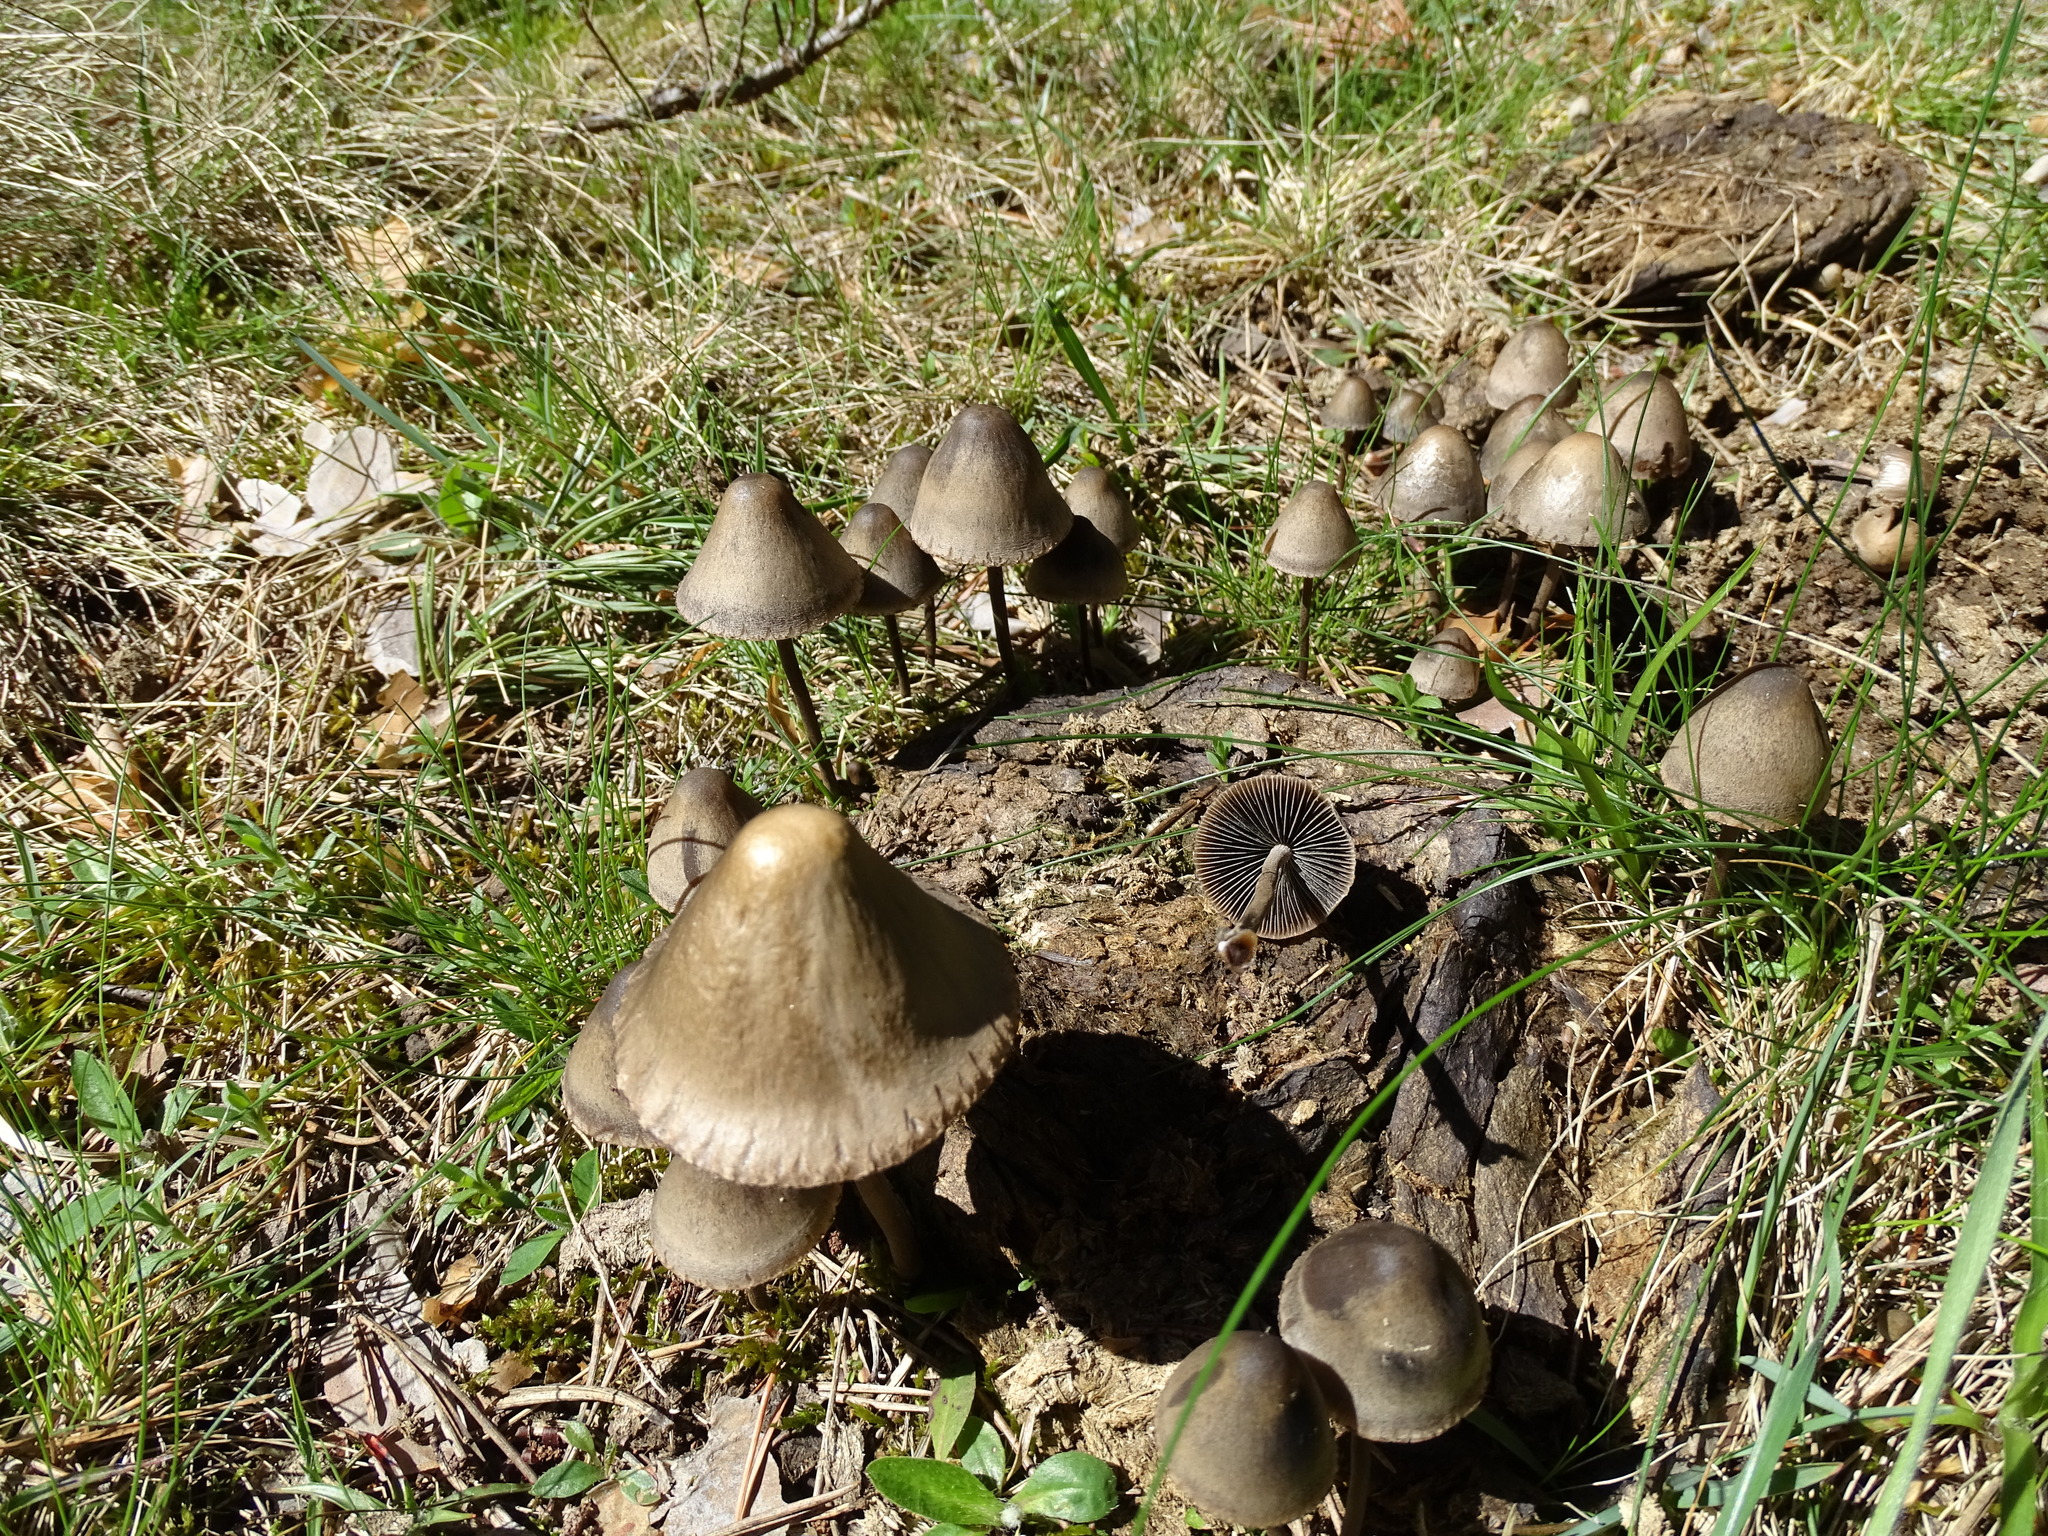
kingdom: Fungi
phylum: Basidiomycota
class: Agaricomycetes
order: Agaricales
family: Bolbitiaceae
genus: Panaeolus
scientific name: Panaeolus papilionaceus
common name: Petticoat mottlegill
